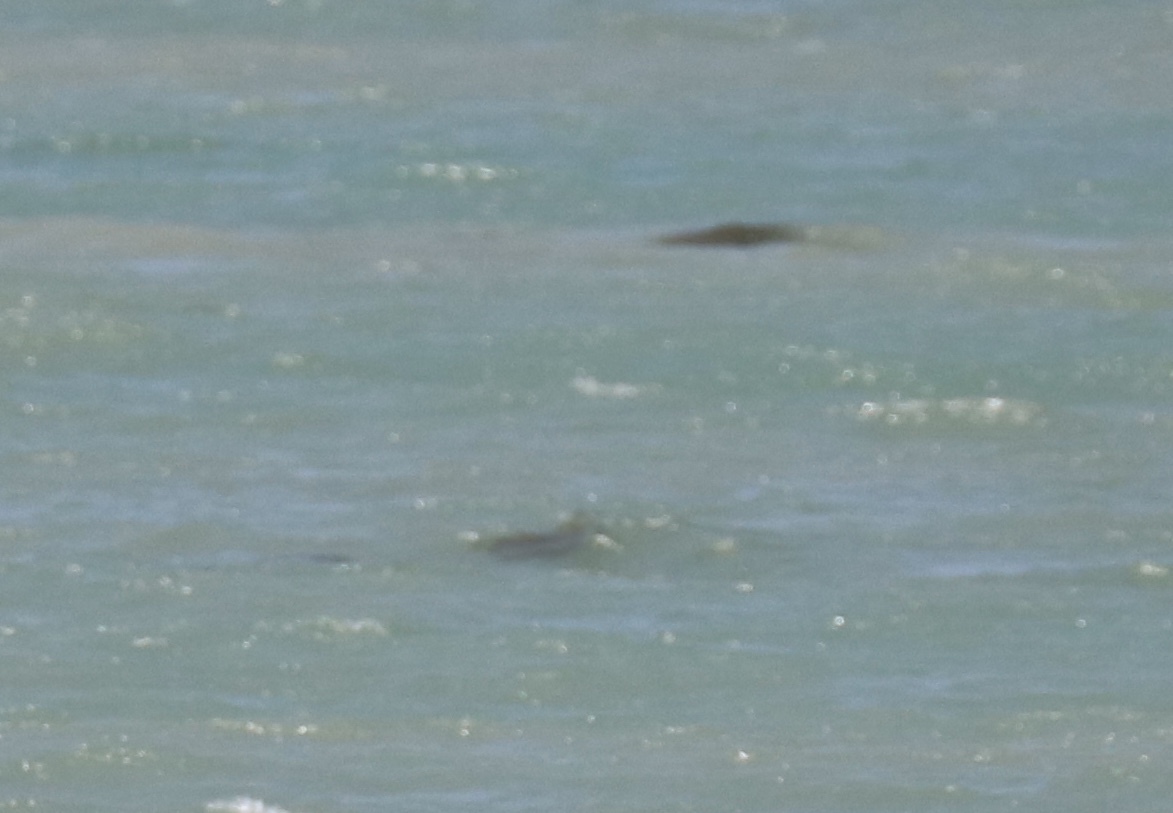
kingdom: Animalia
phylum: Chordata
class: Mammalia
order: Sirenia
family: Trichechidae
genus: Trichechus
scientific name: Trichechus manatus
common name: West indian manatee
